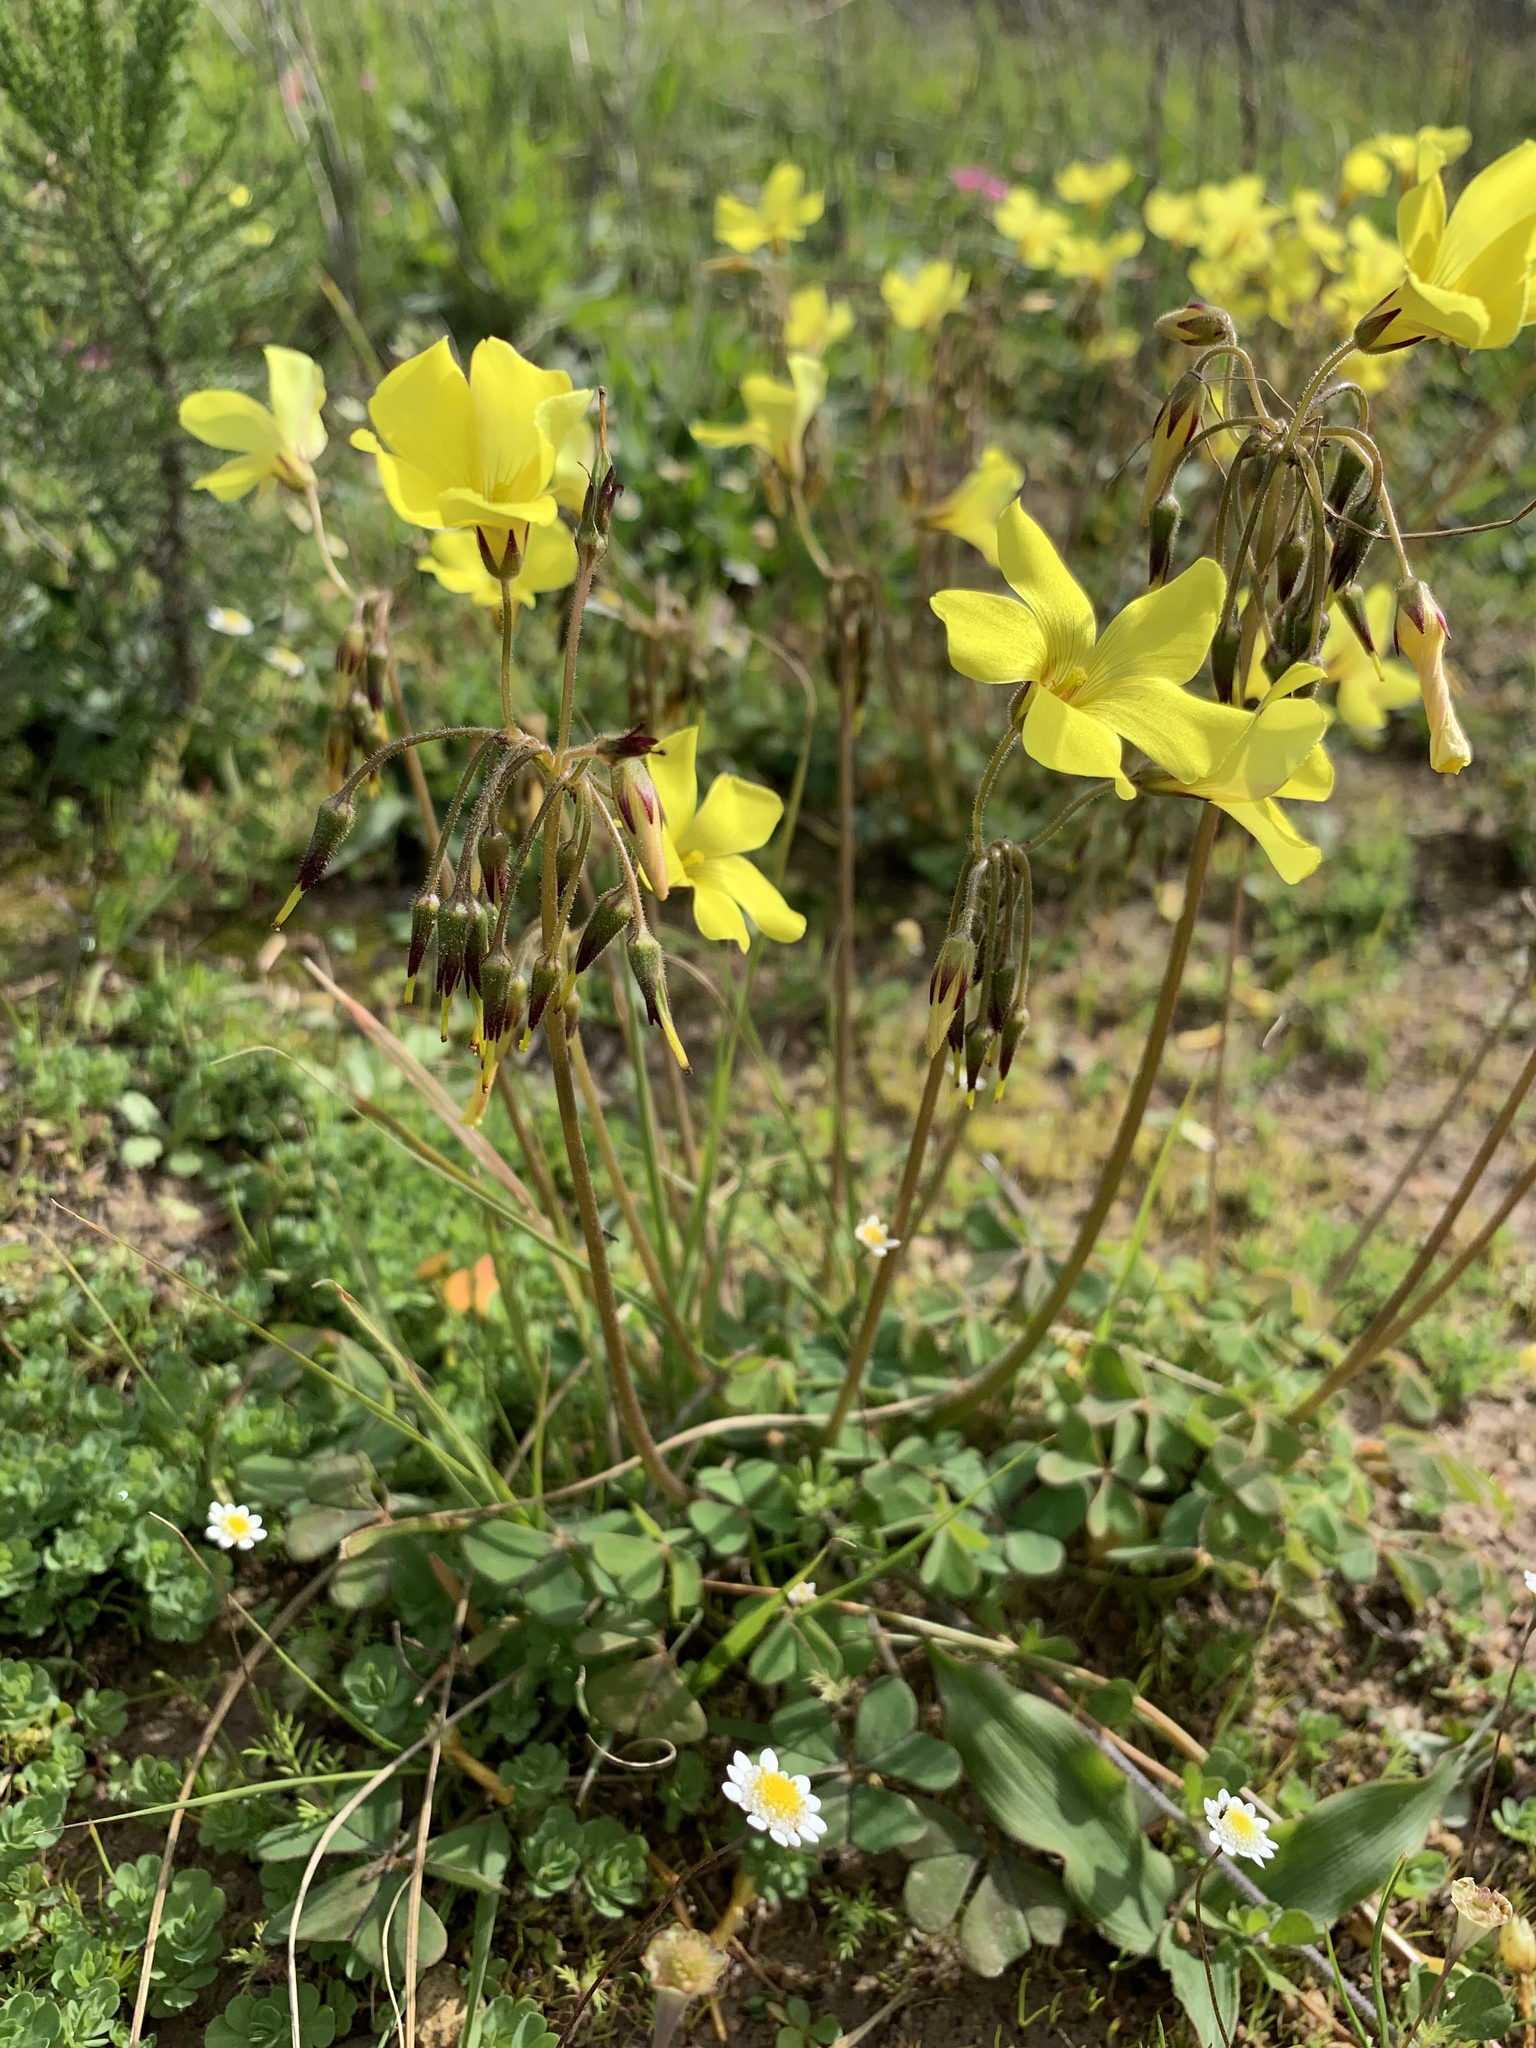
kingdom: Plantae
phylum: Tracheophyta
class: Magnoliopsida
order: Oxalidales
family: Oxalidaceae
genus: Oxalis
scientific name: Oxalis pes-caprae
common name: Bermuda-buttercup
